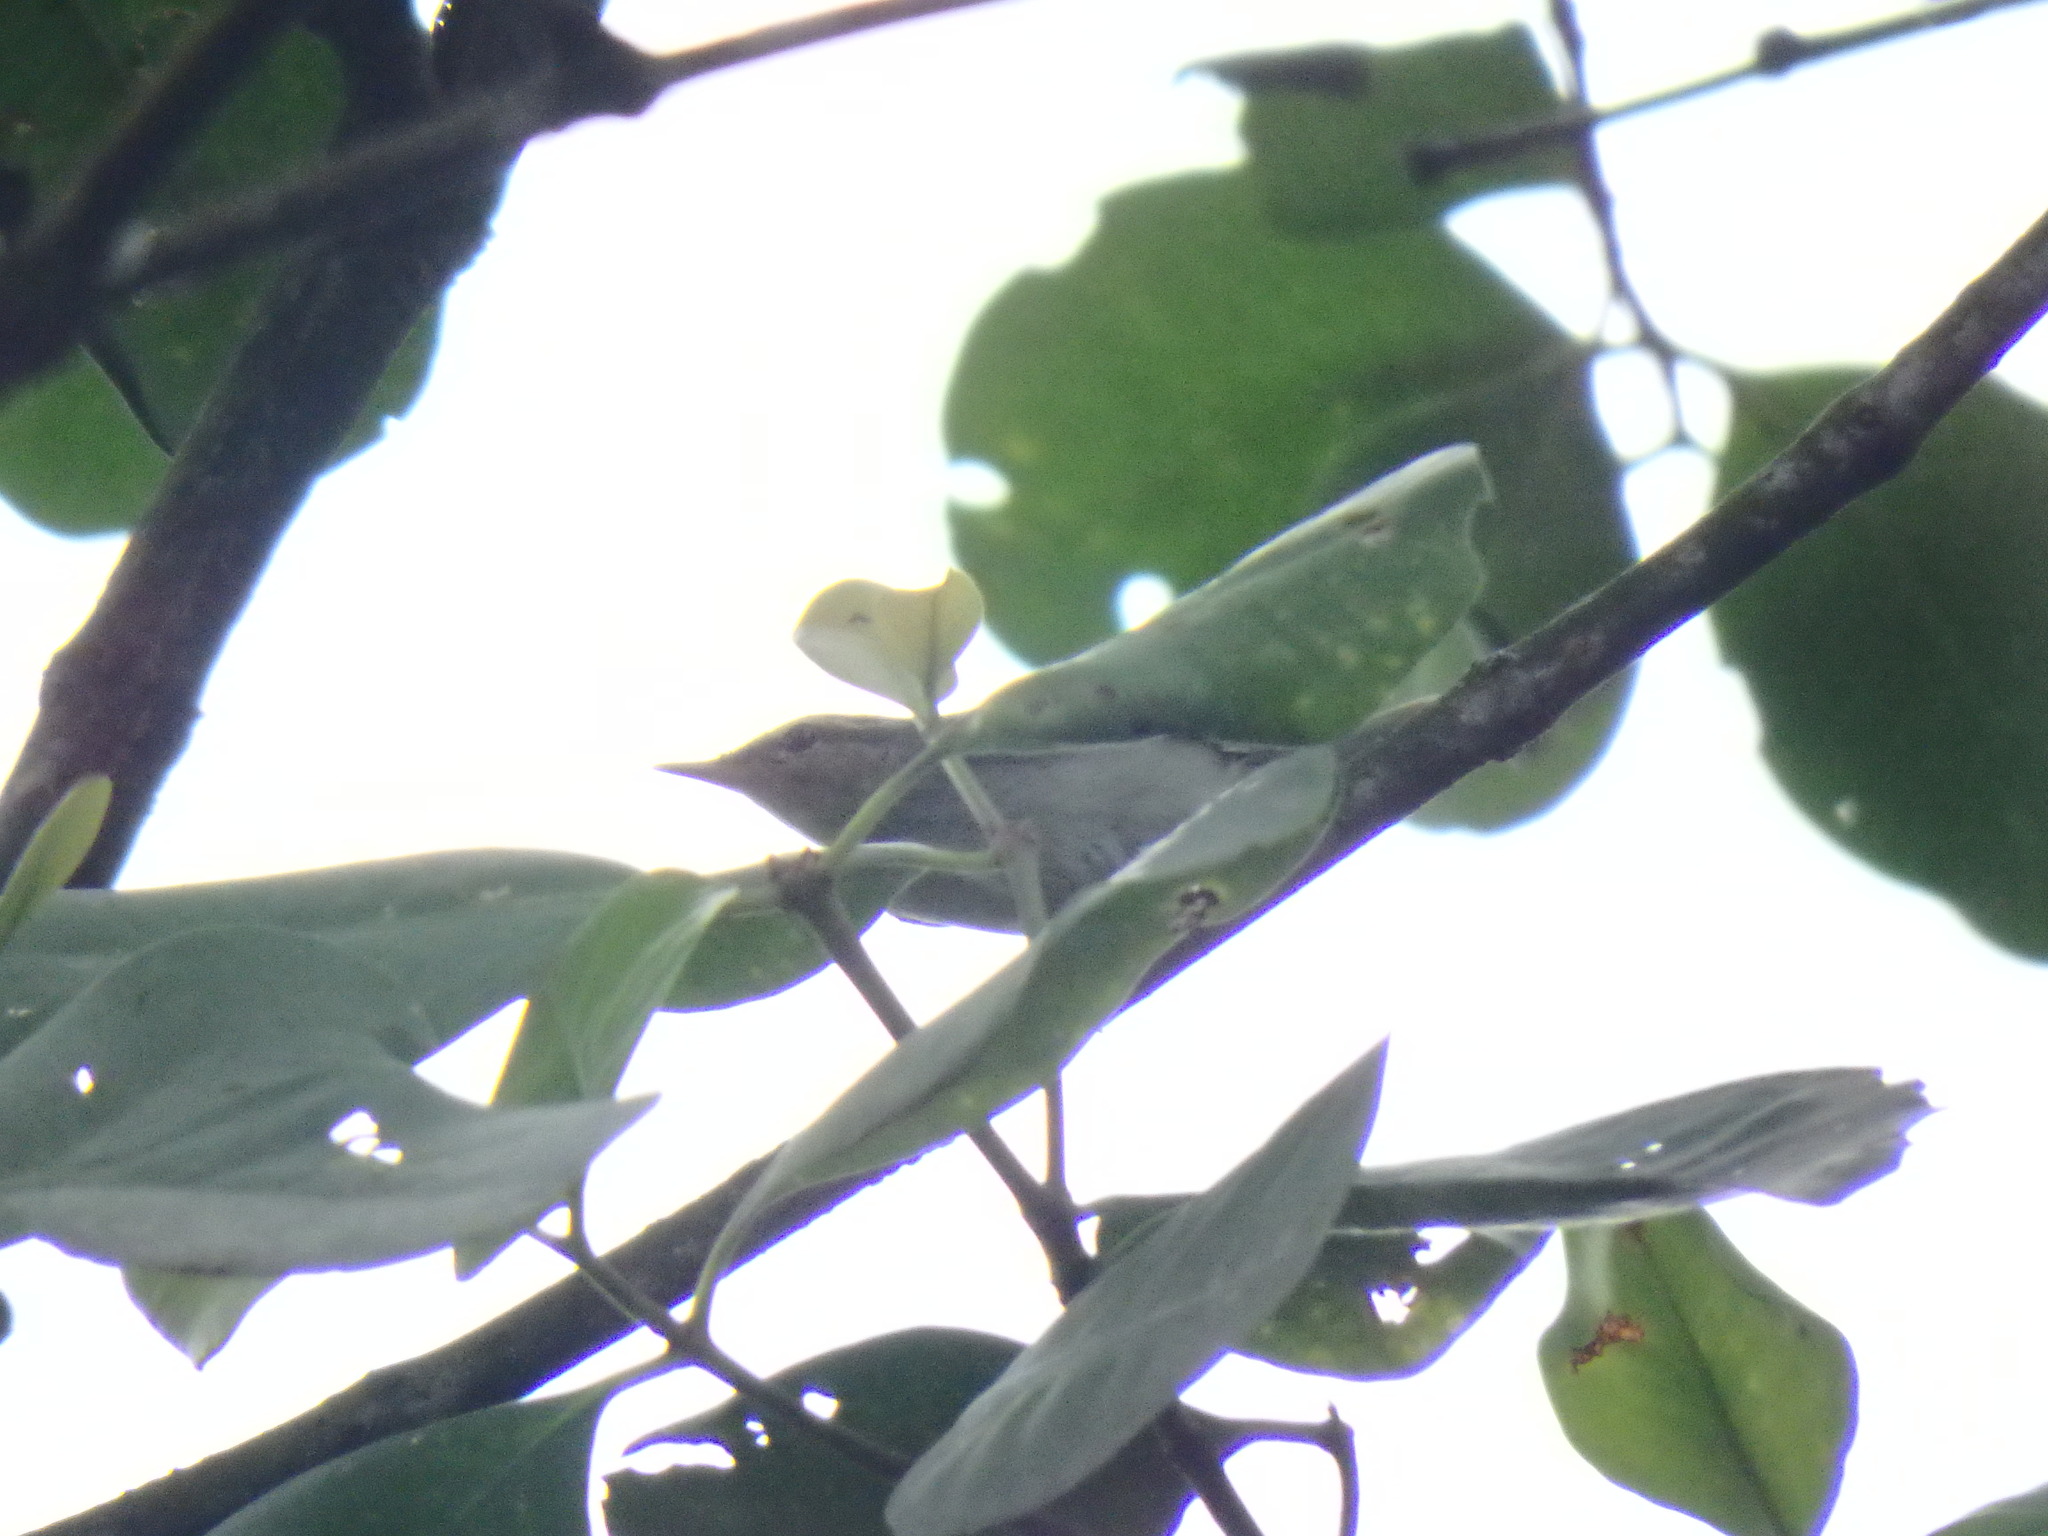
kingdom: Animalia
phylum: Chordata
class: Aves
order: Passeriformes
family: Phylloscopidae
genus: Phylloscopus
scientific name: Phylloscopus borealis
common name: Arctic warbler
